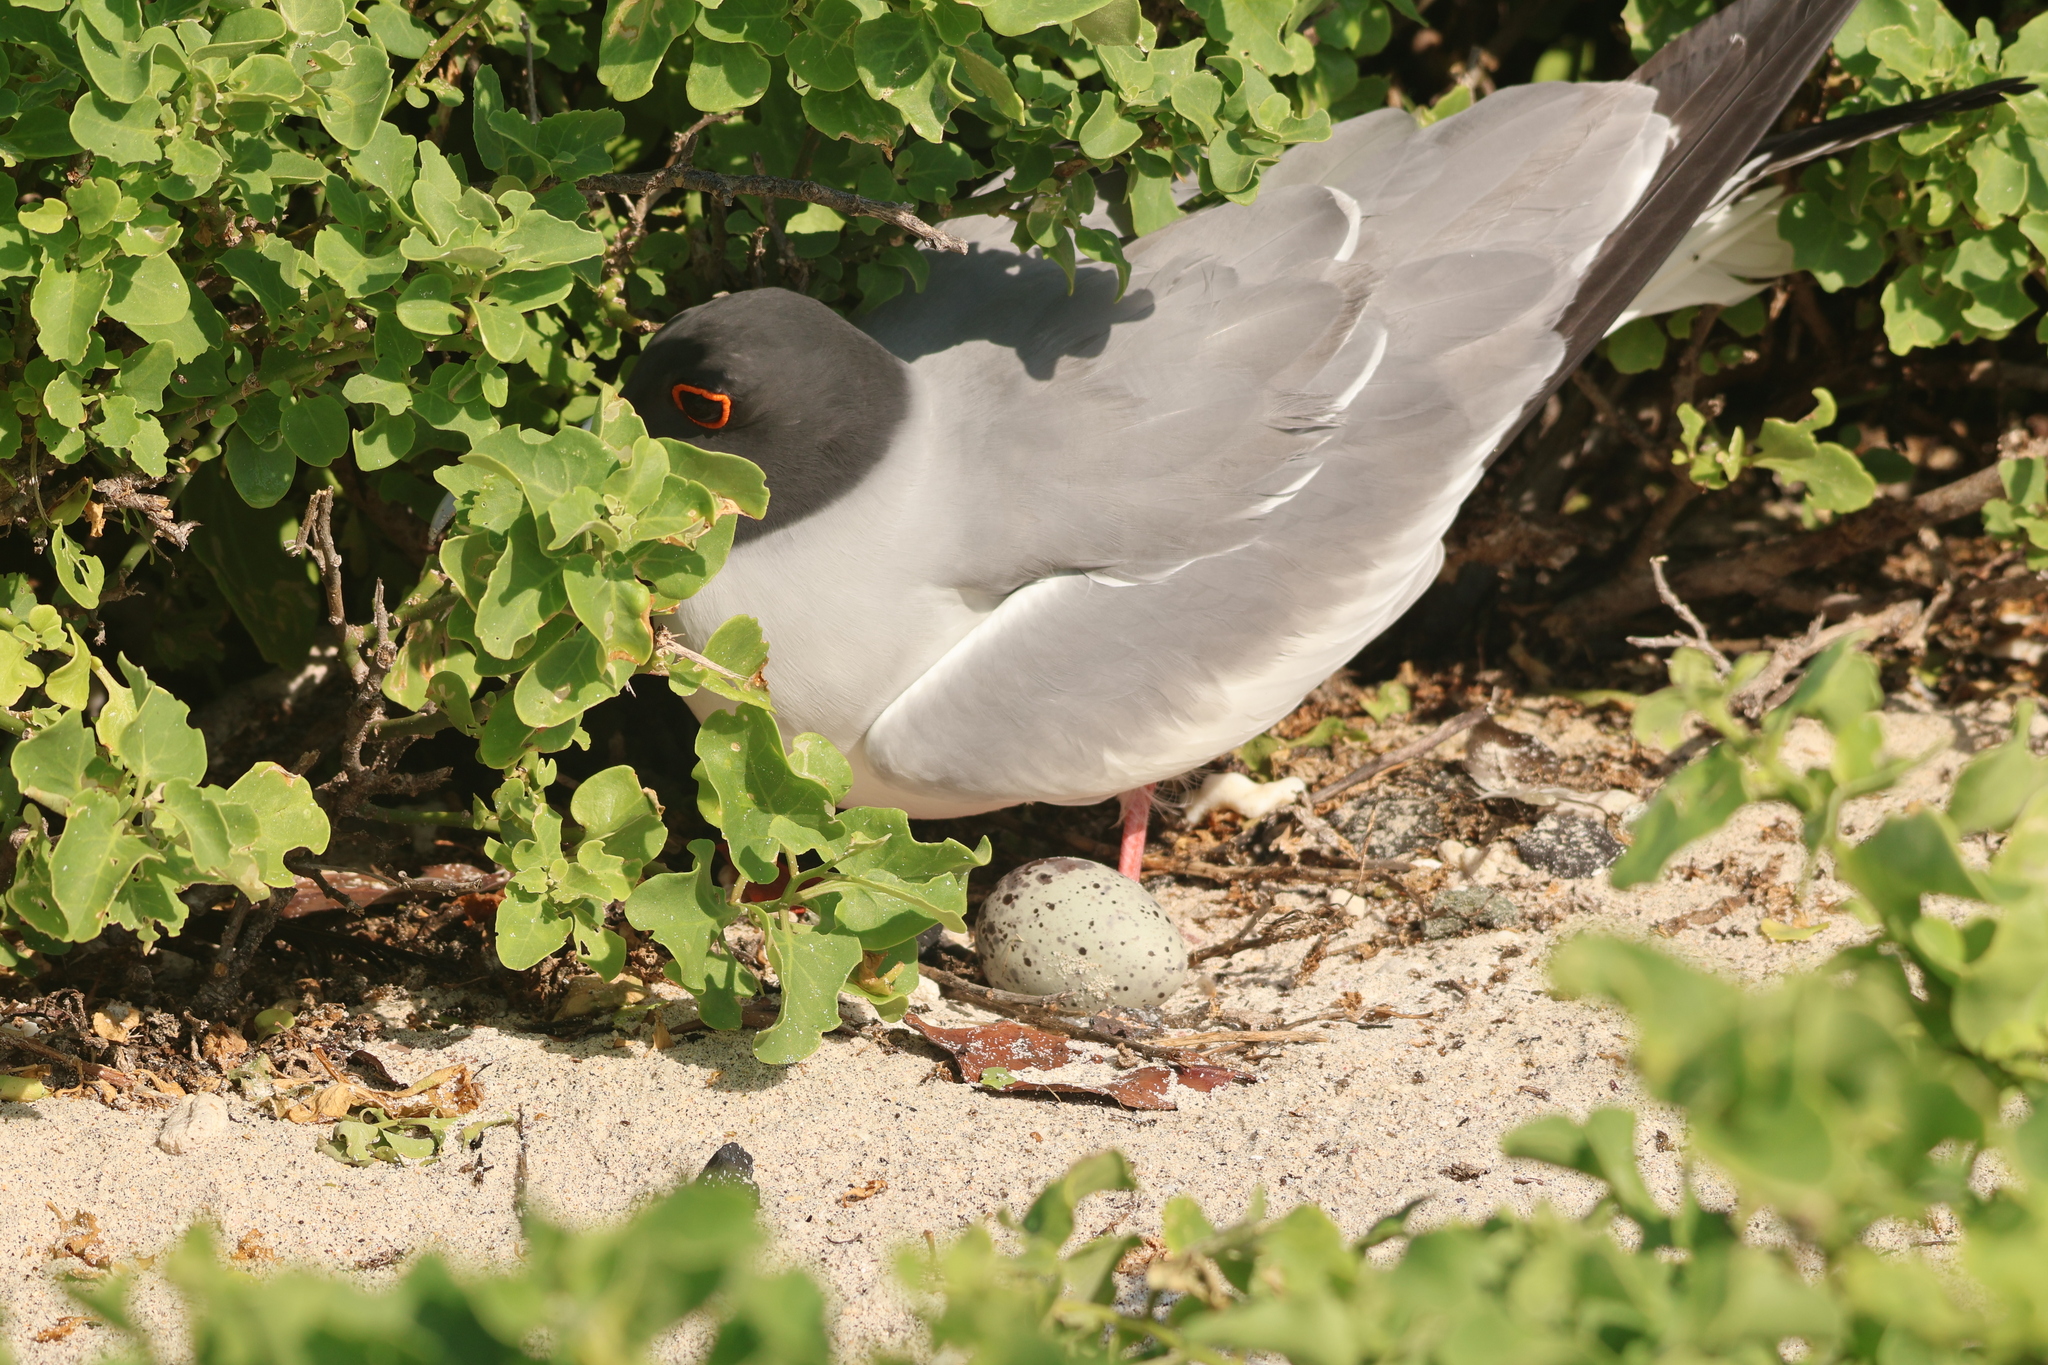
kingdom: Animalia
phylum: Chordata
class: Aves
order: Charadriiformes
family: Laridae
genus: Creagrus
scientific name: Creagrus furcatus
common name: Swallow-tailed gull
